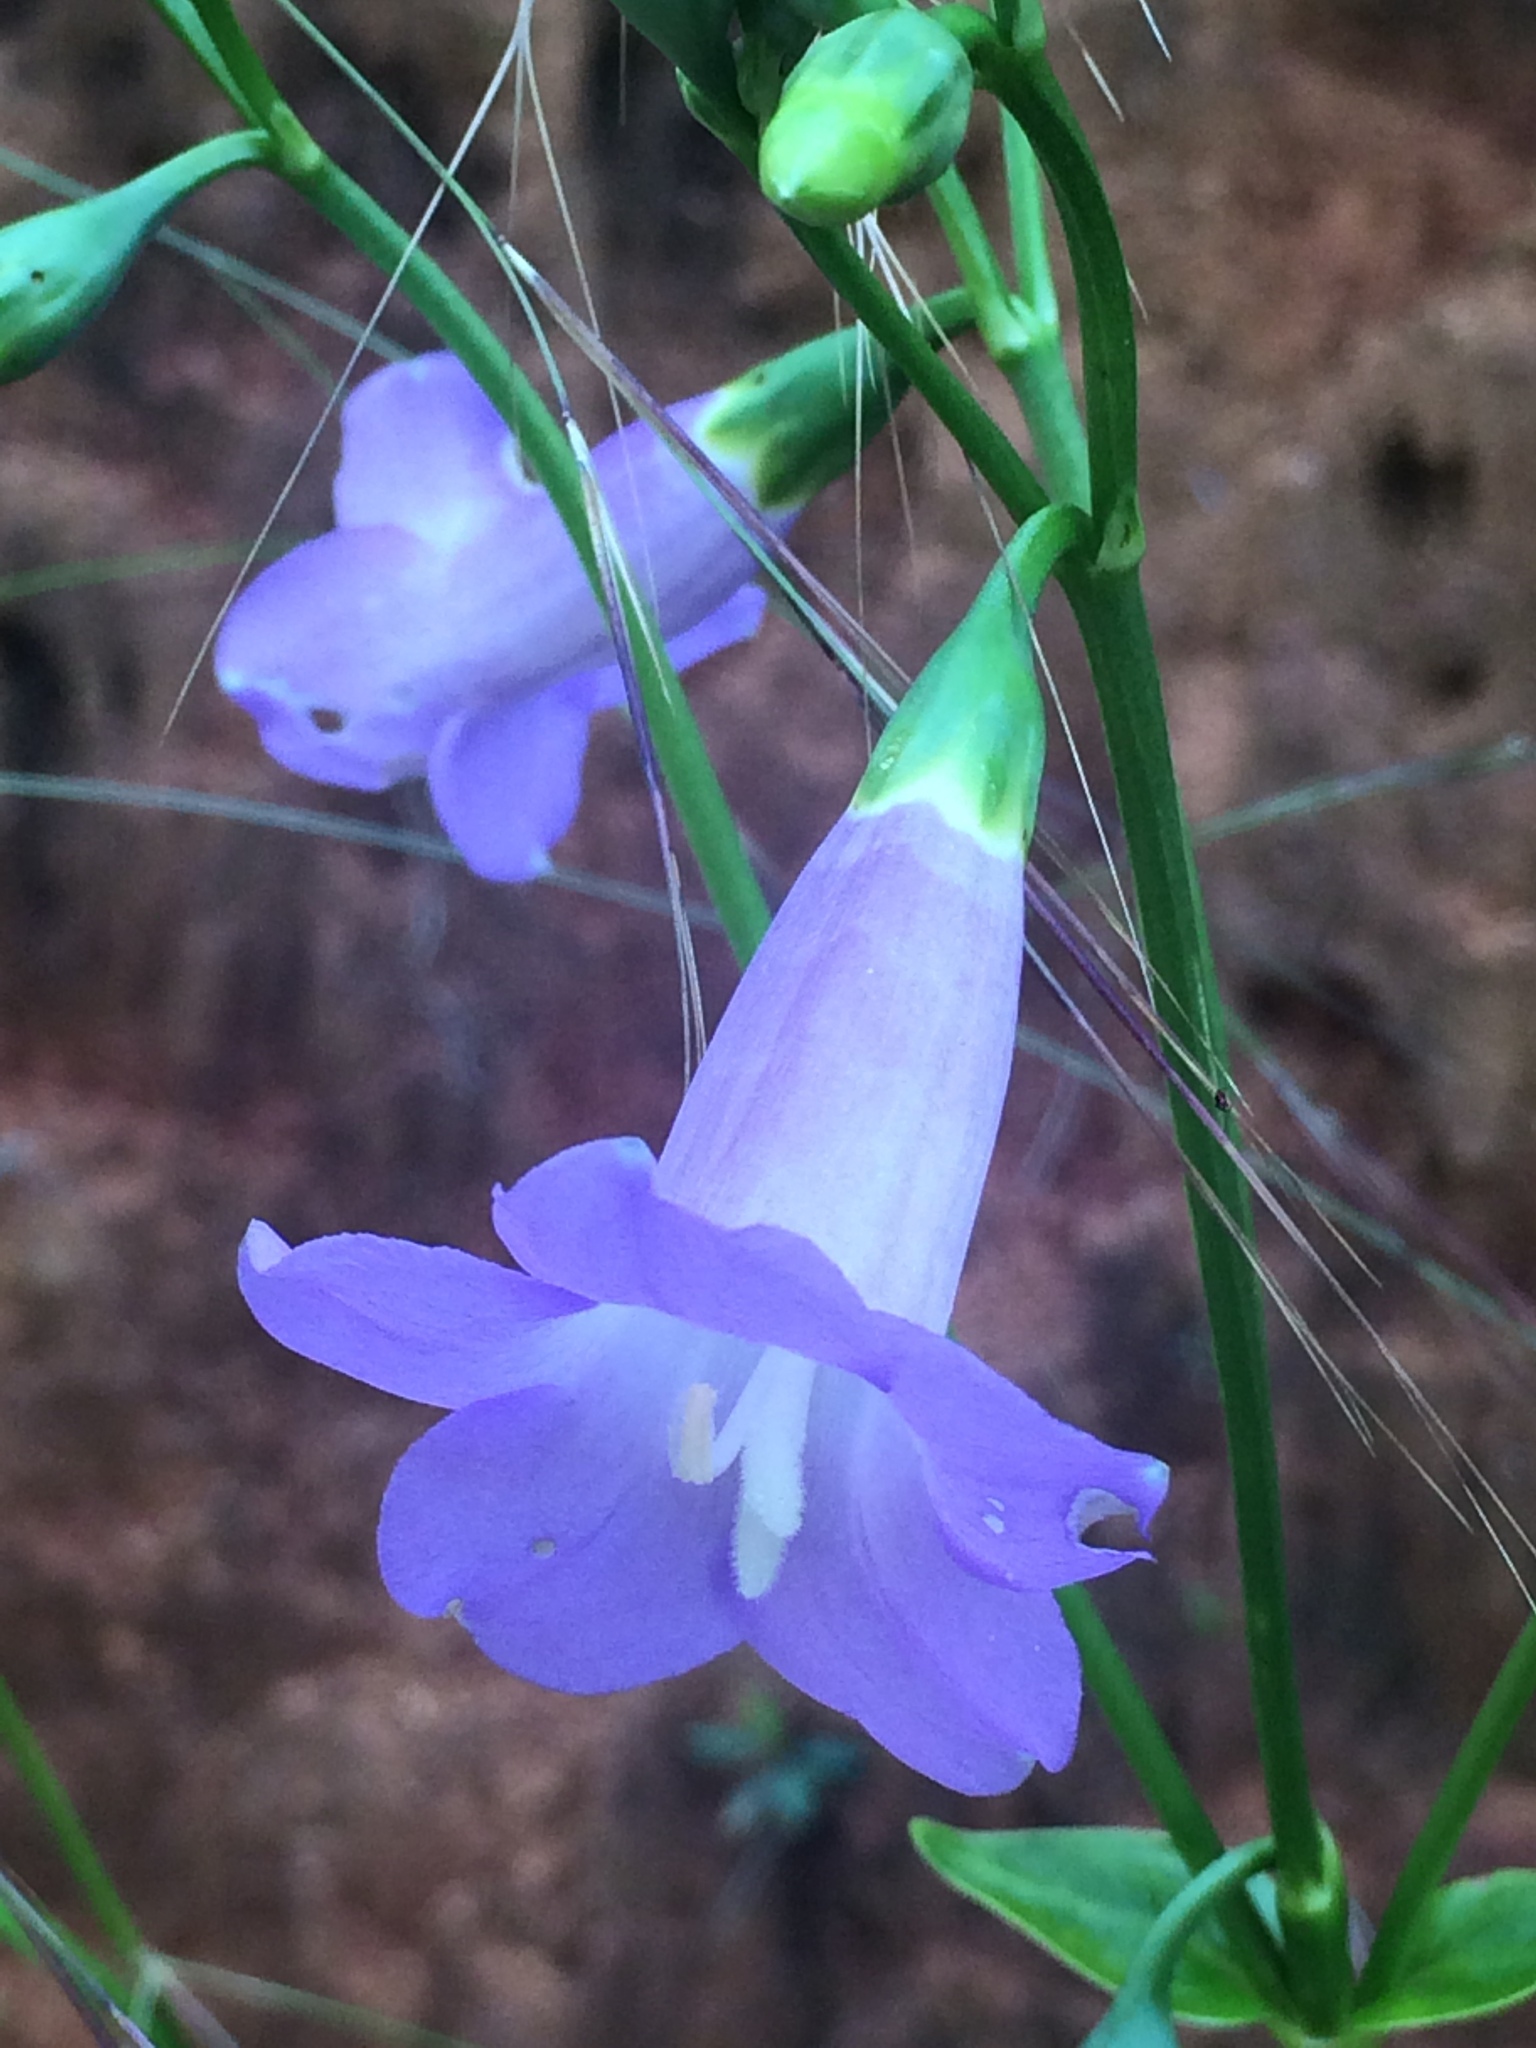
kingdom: Plantae
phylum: Tracheophyta
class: Magnoliopsida
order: Gentianales
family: Gentianaceae
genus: Chelonanthus
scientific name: Chelonanthus purpurascens
